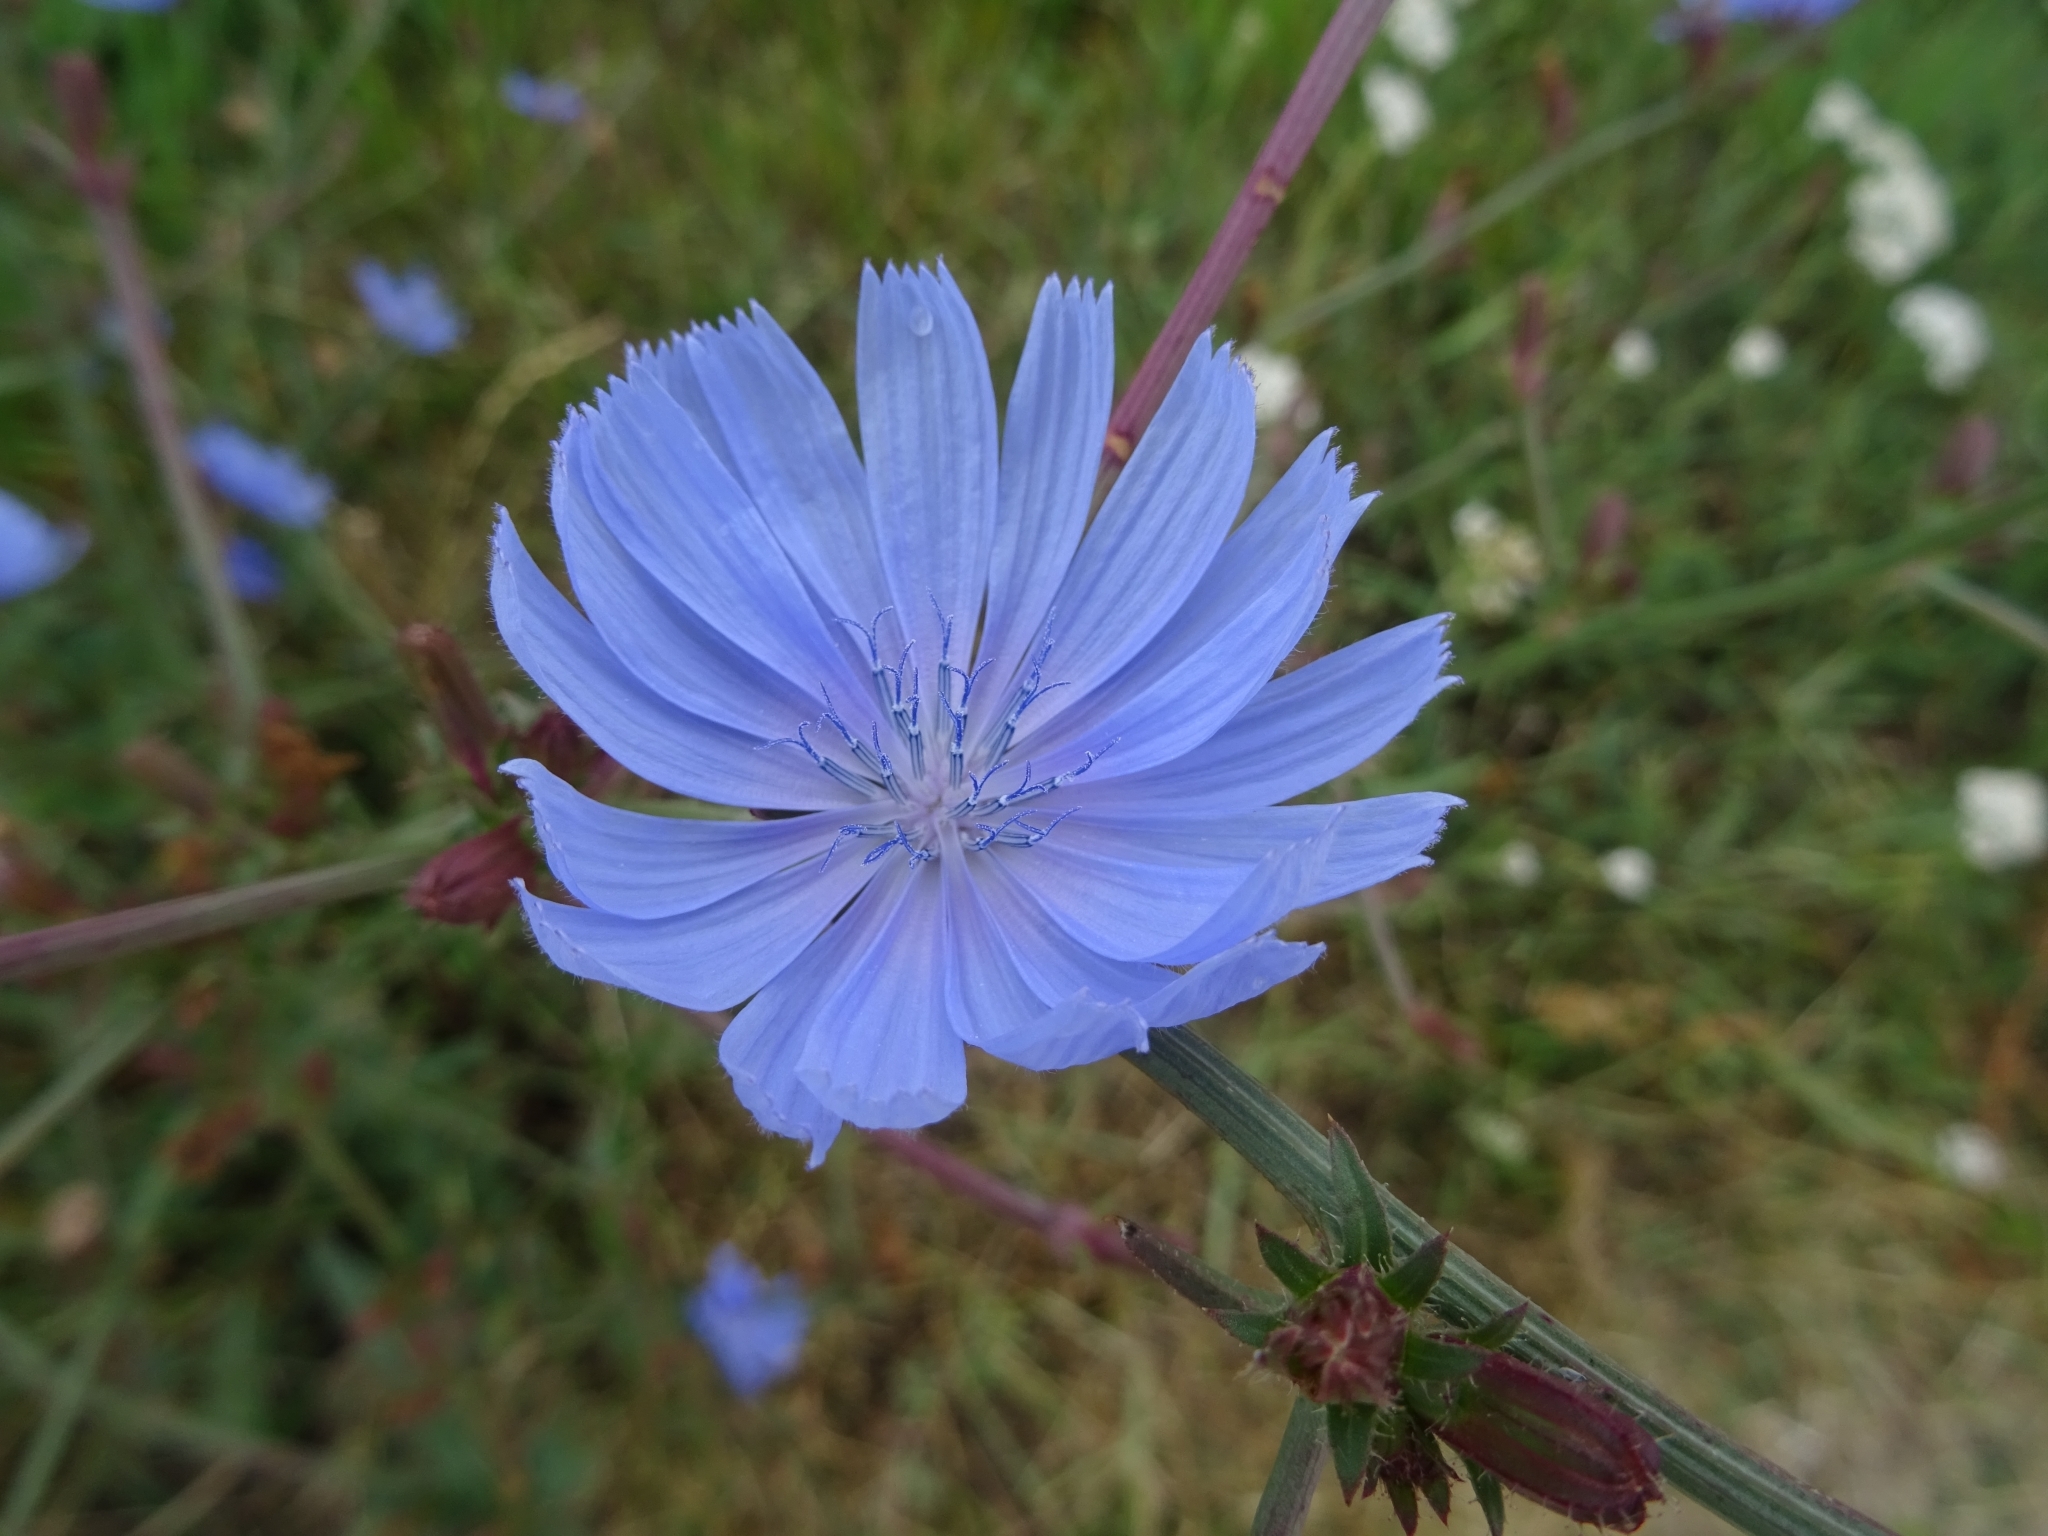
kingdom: Plantae
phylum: Tracheophyta
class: Magnoliopsida
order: Asterales
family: Asteraceae
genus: Cichorium
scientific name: Cichorium intybus
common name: Chicory
